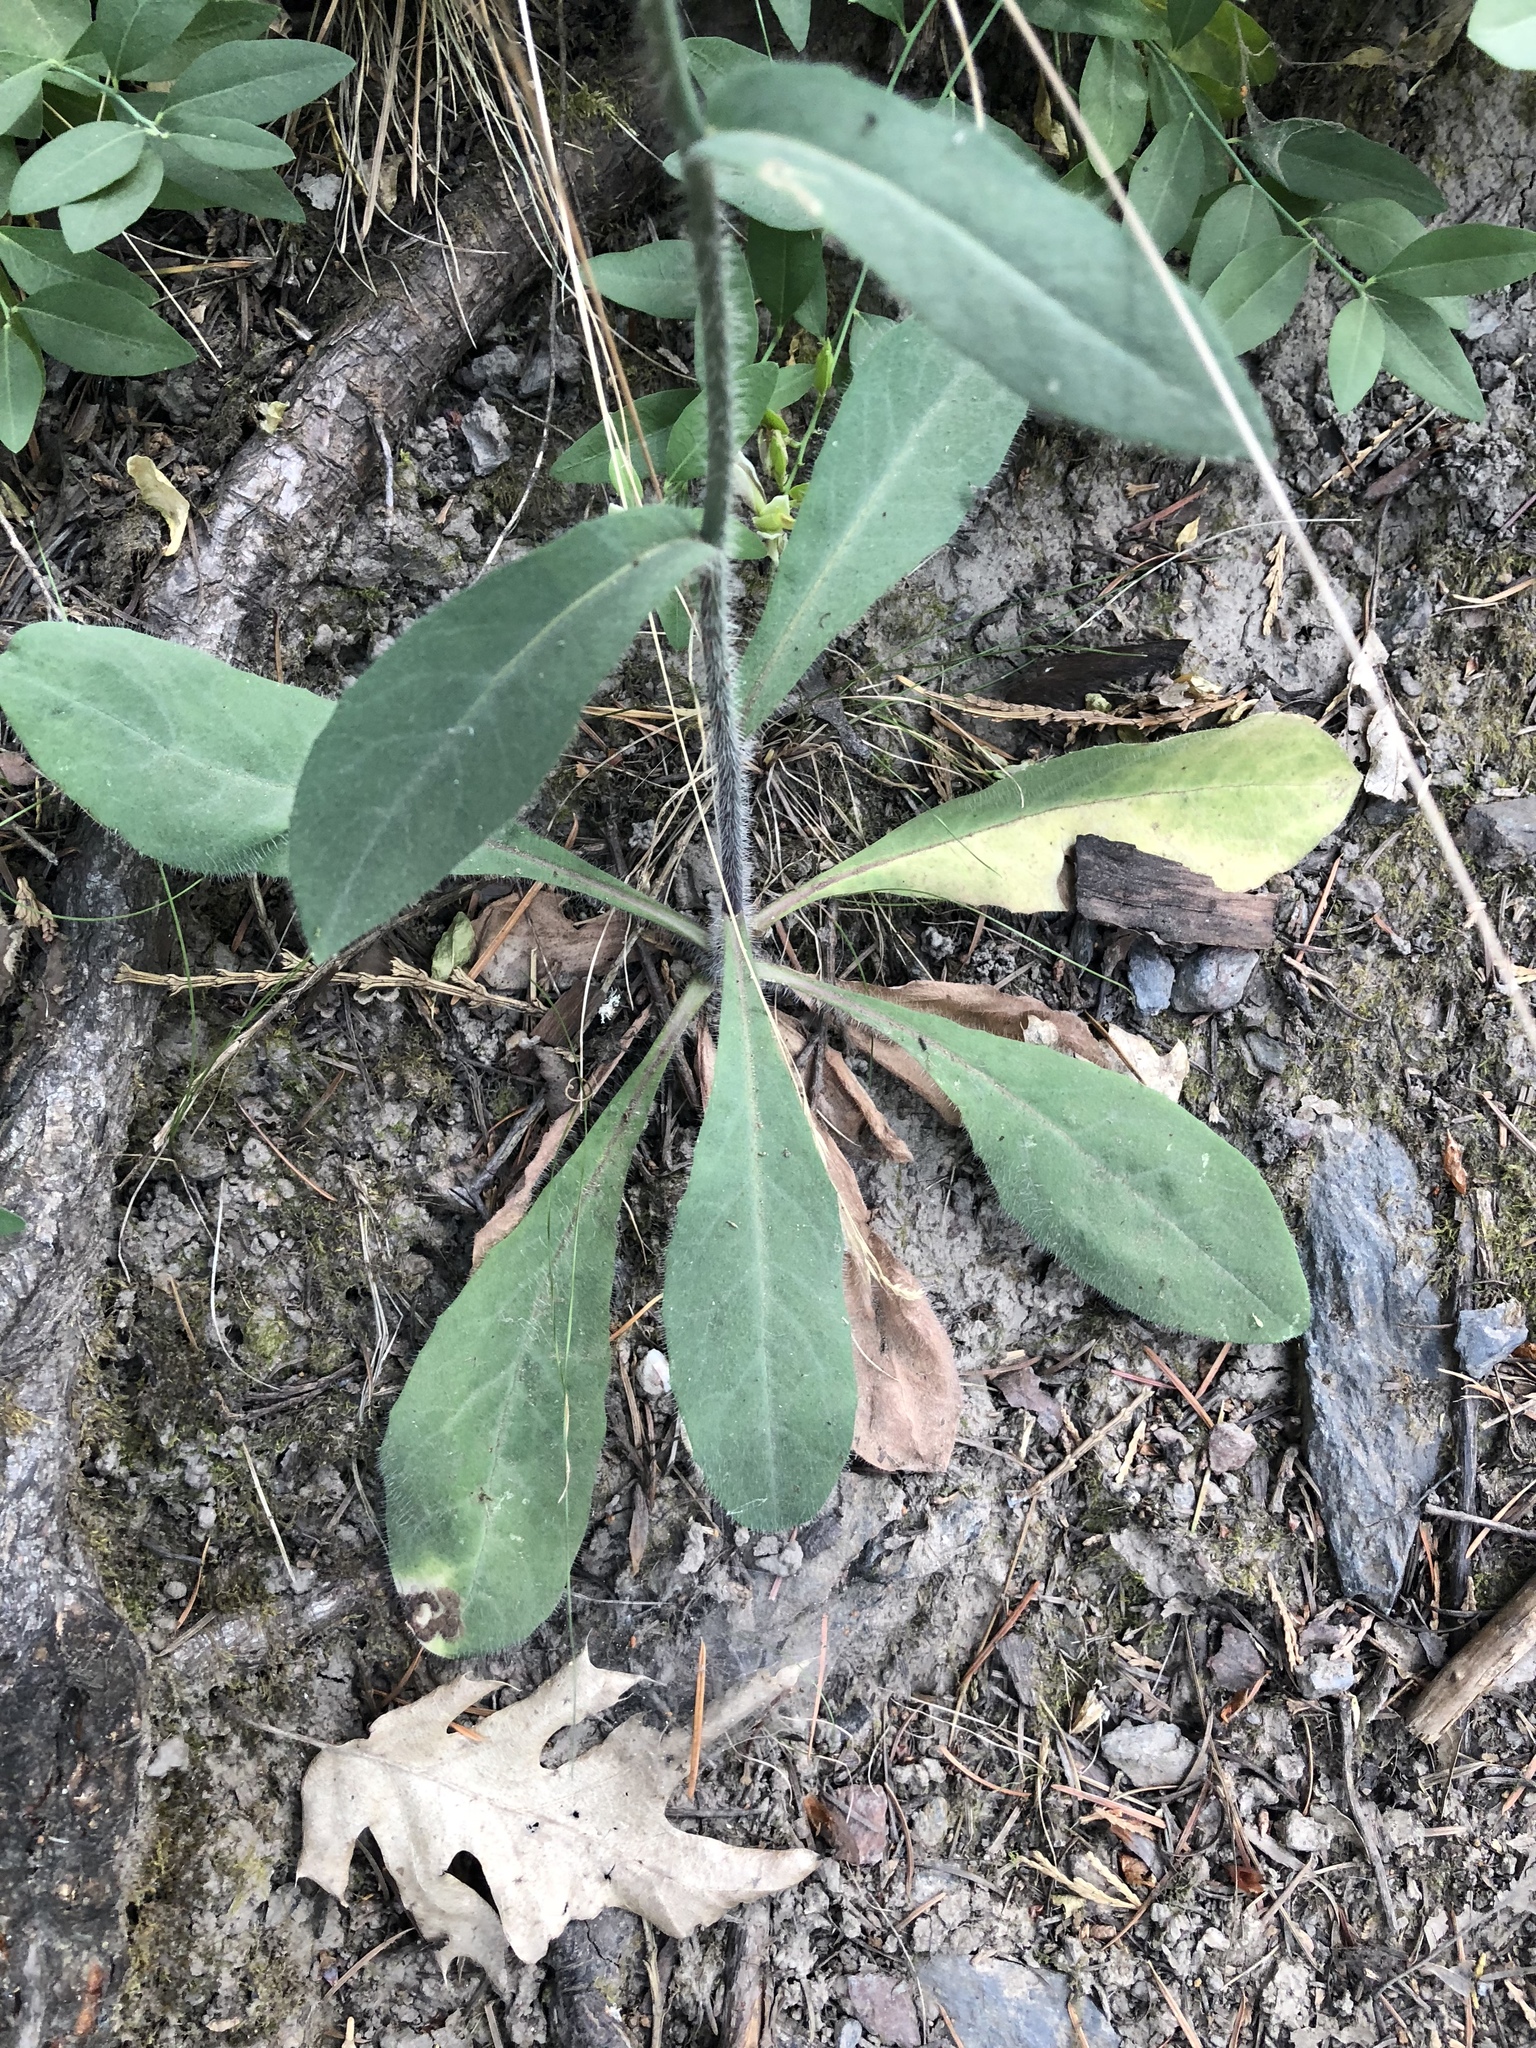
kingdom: Plantae
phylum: Tracheophyta
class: Magnoliopsida
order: Asterales
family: Asteraceae
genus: Hieracium
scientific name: Hieracium albiflorum
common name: White hawkweed
